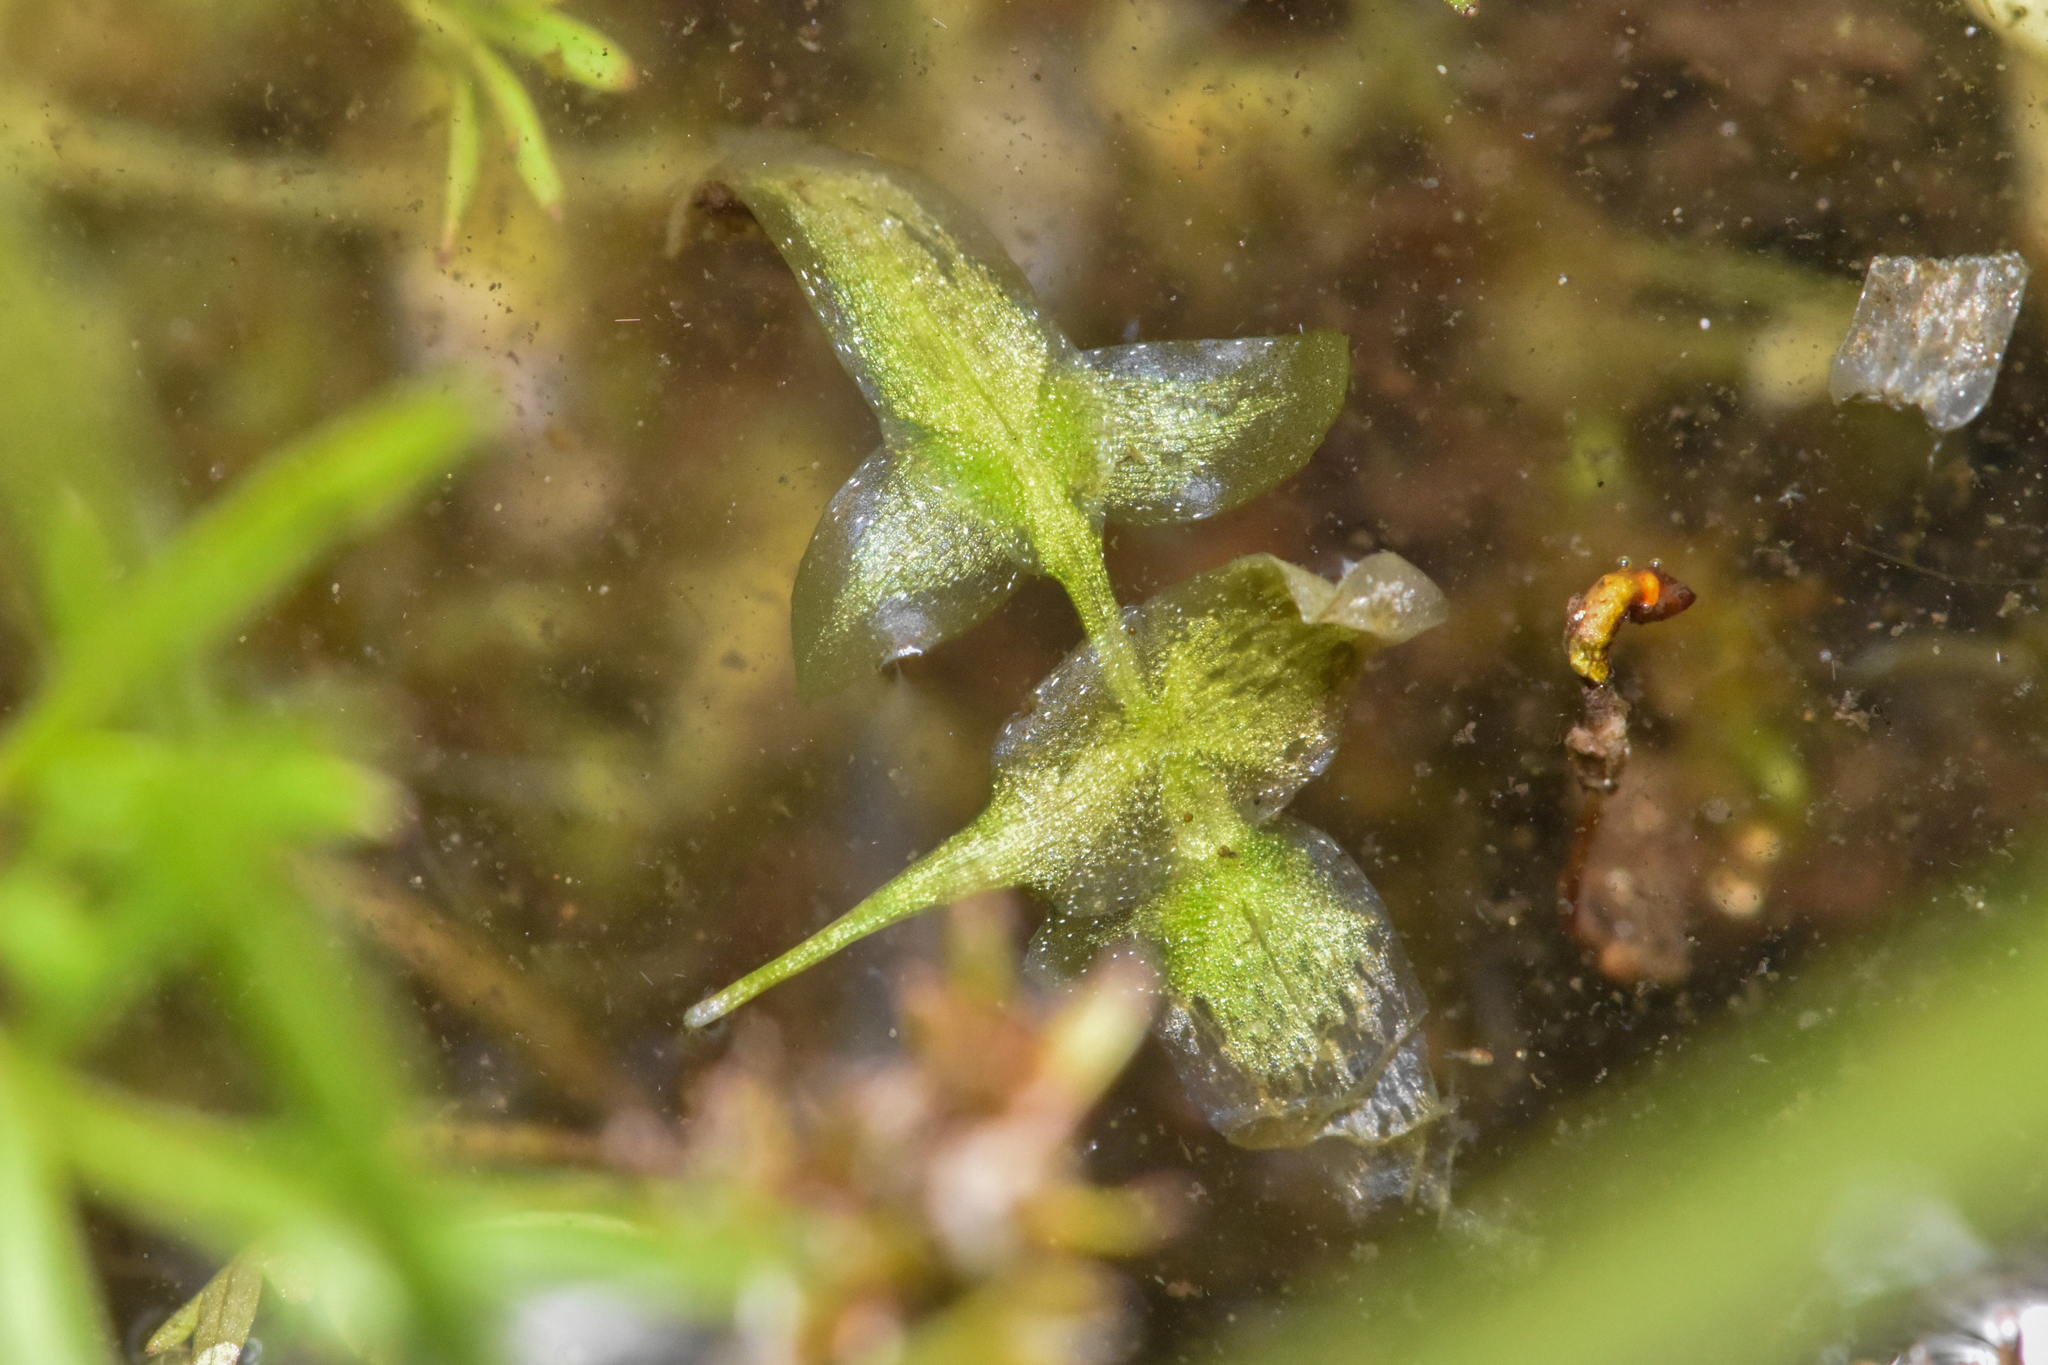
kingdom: Plantae
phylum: Tracheophyta
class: Liliopsida
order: Alismatales
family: Araceae
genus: Lemna
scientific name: Lemna trisulca
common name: Ivy-leaved duckweed
